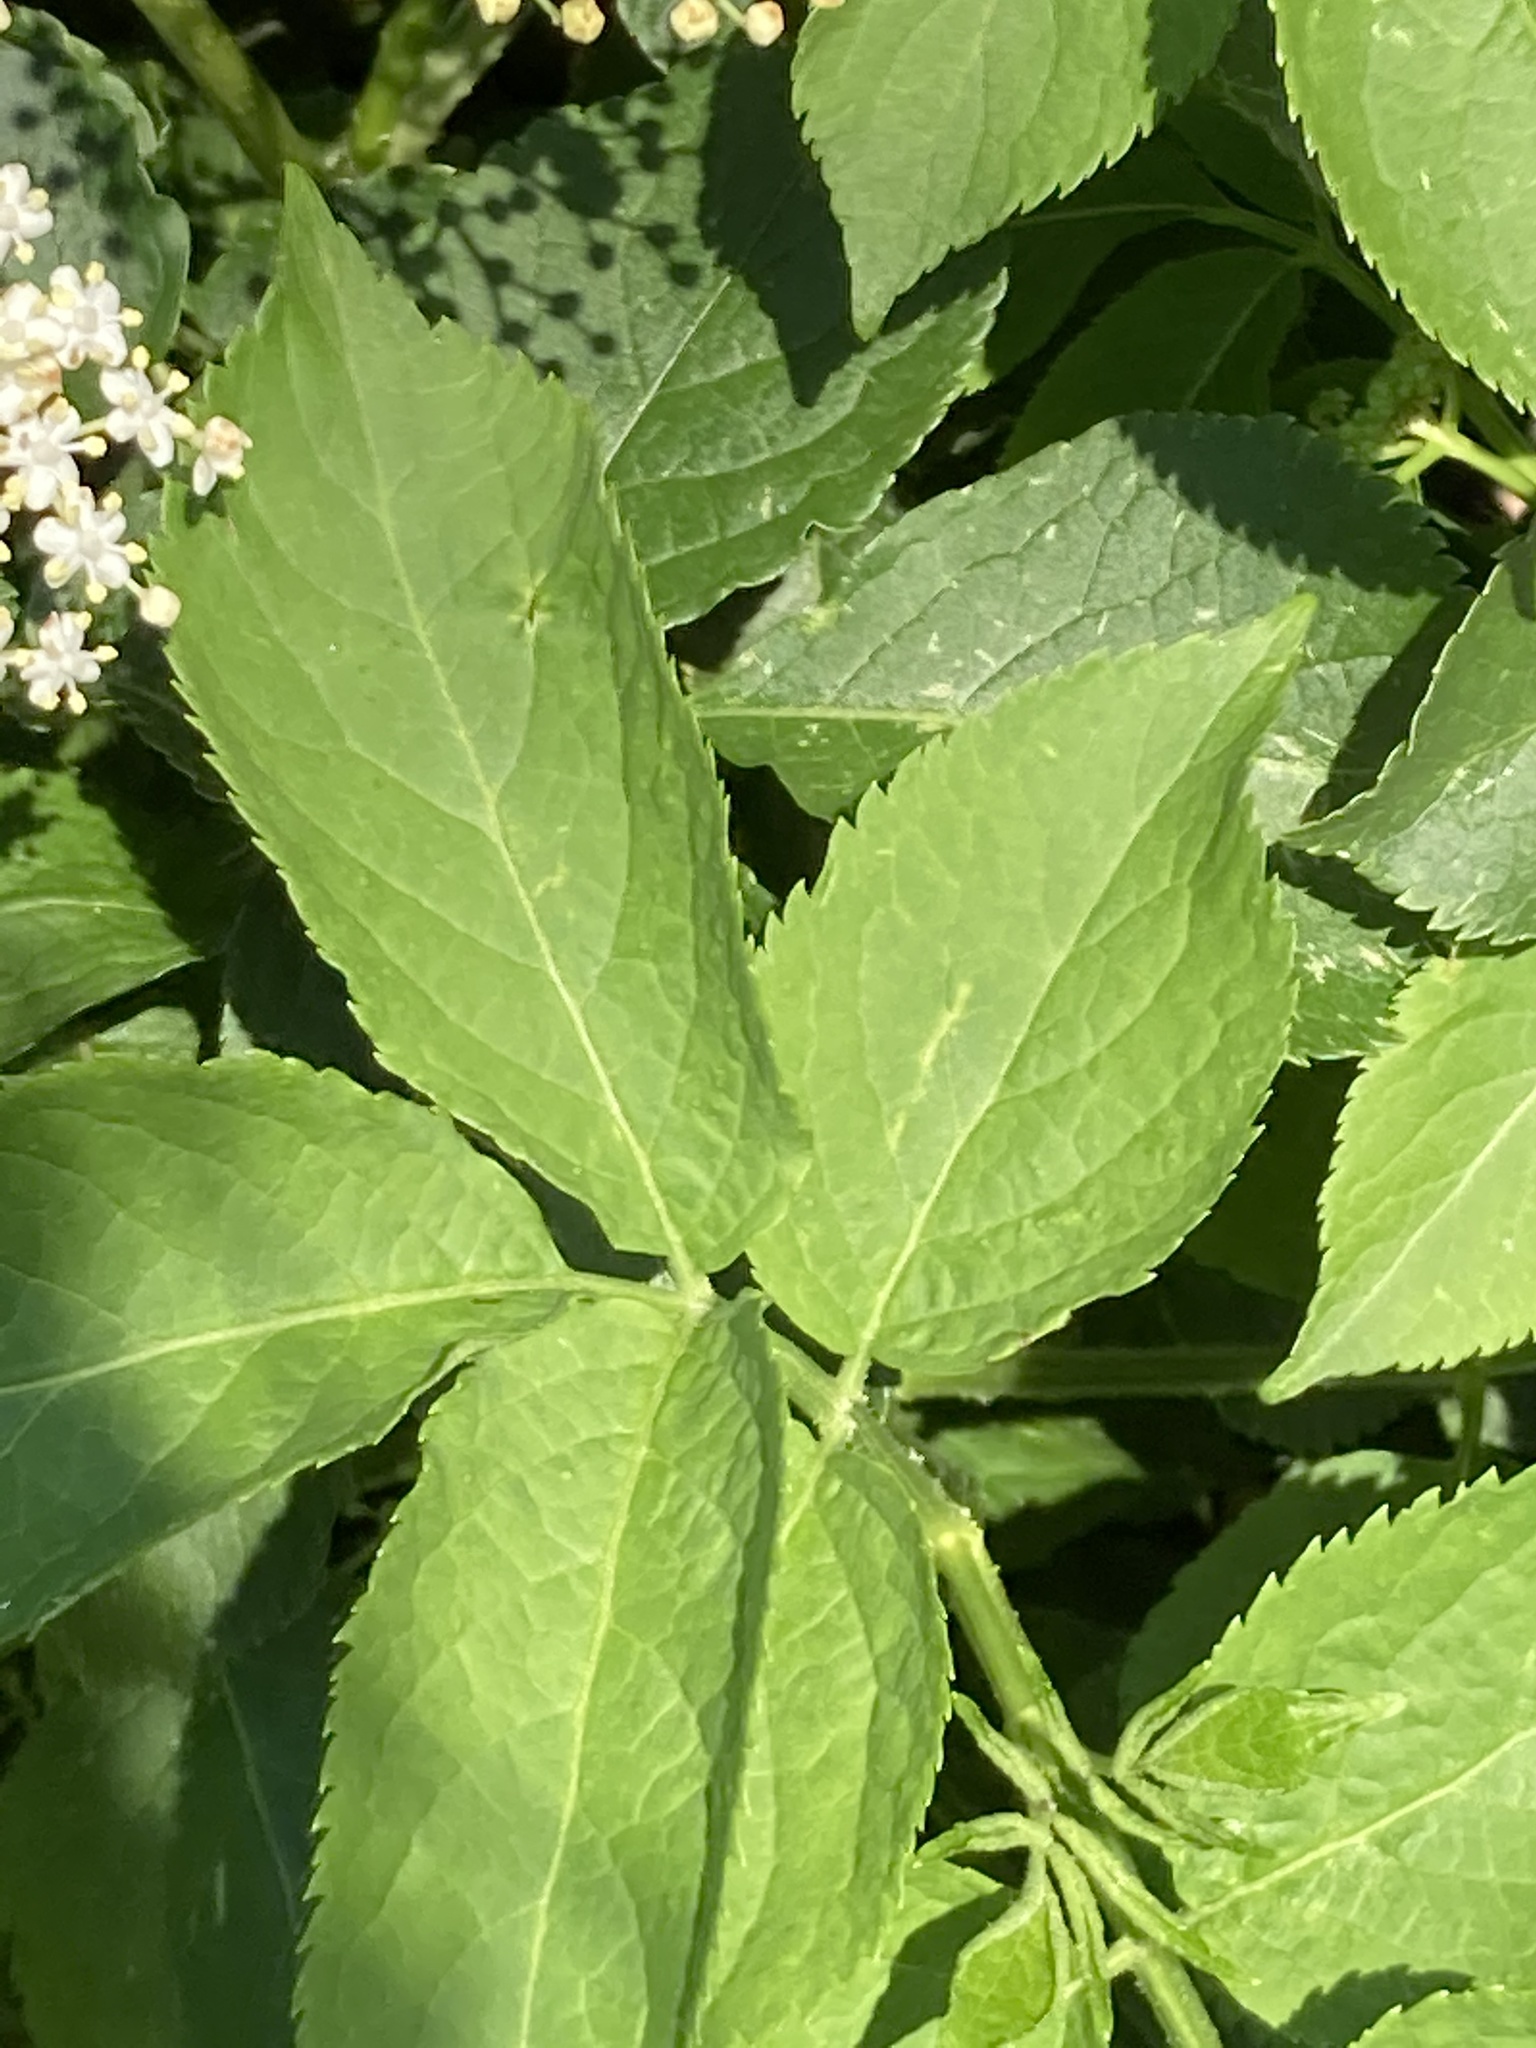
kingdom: Plantae
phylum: Tracheophyta
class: Magnoliopsida
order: Dipsacales
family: Viburnaceae
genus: Sambucus
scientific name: Sambucus nigra
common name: Elder
